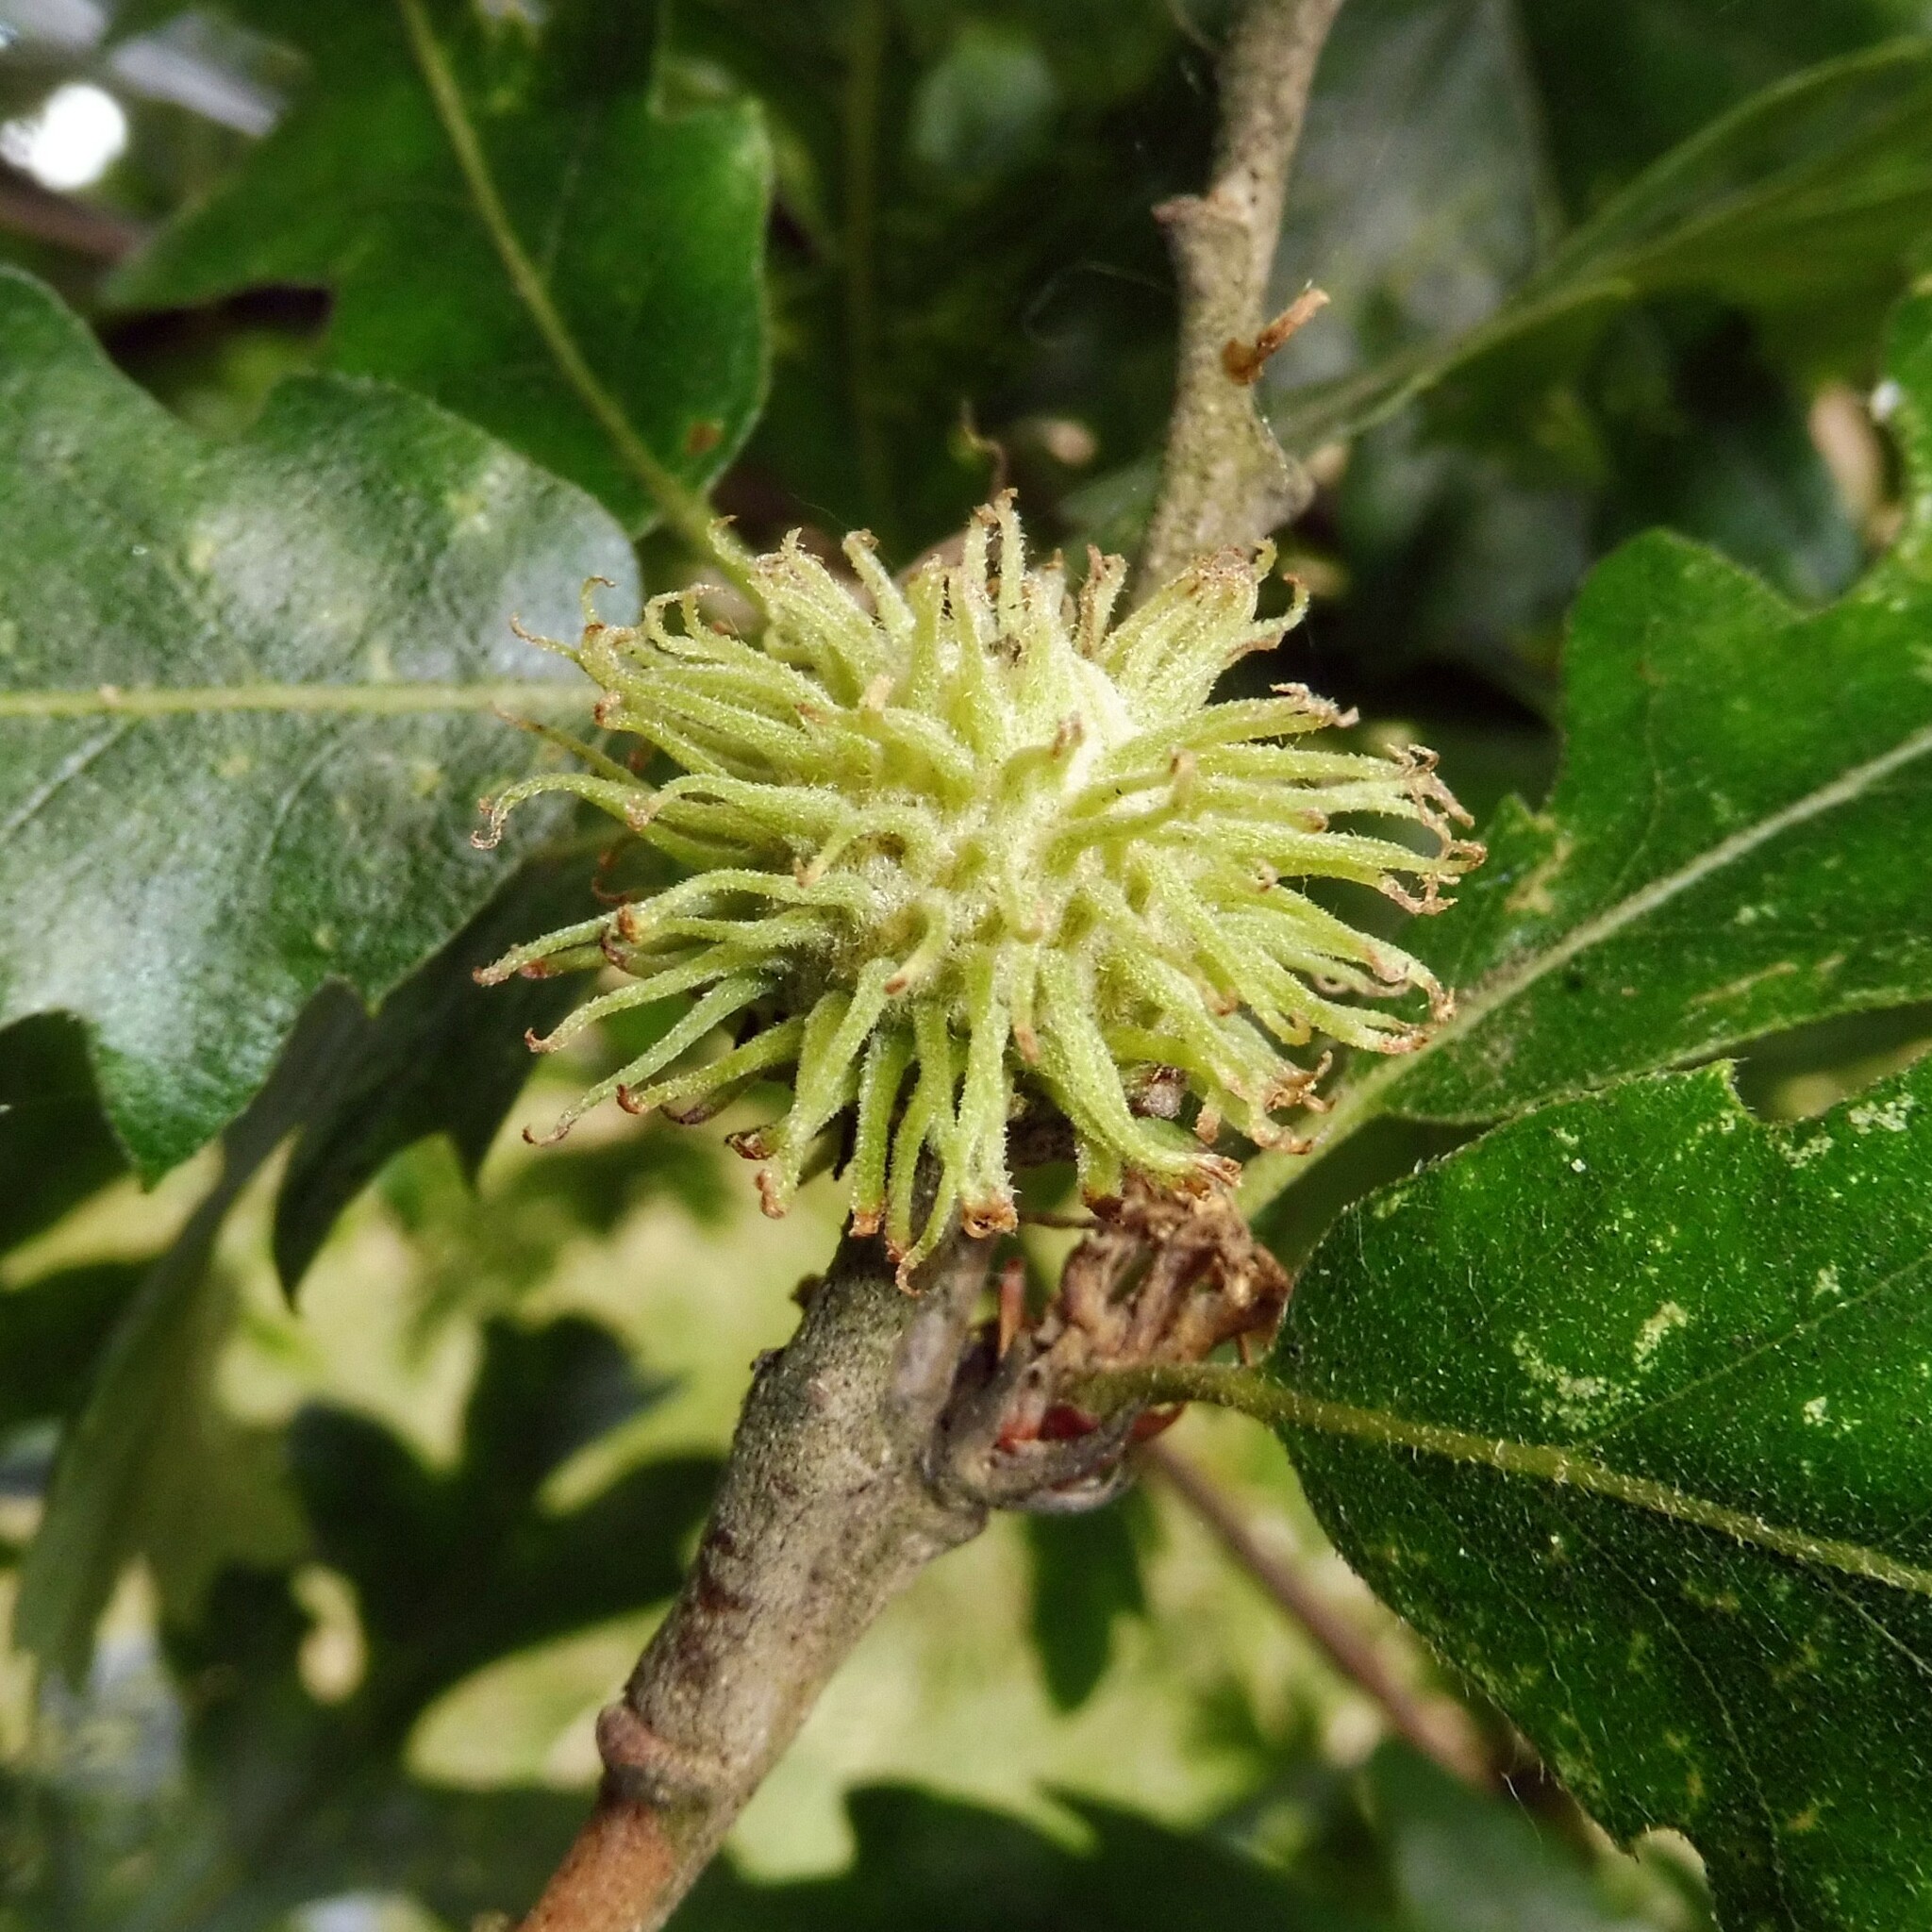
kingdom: Plantae
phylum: Tracheophyta
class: Magnoliopsida
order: Fagales
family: Fagaceae
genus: Quercus
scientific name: Quercus cerris
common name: Turkey oak
